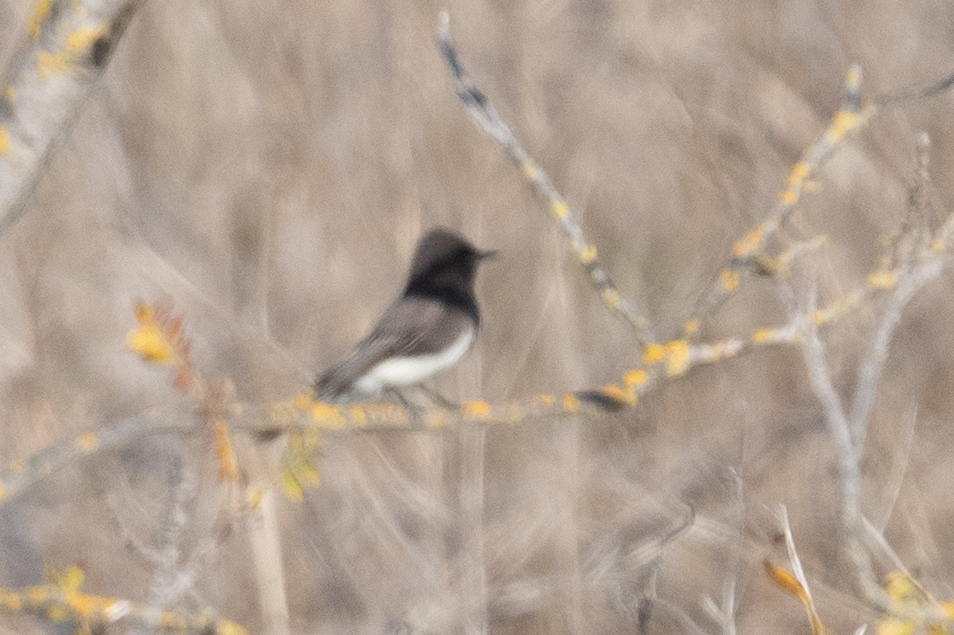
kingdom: Animalia
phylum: Chordata
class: Aves
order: Passeriformes
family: Tyrannidae
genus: Sayornis
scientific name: Sayornis nigricans
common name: Black phoebe
